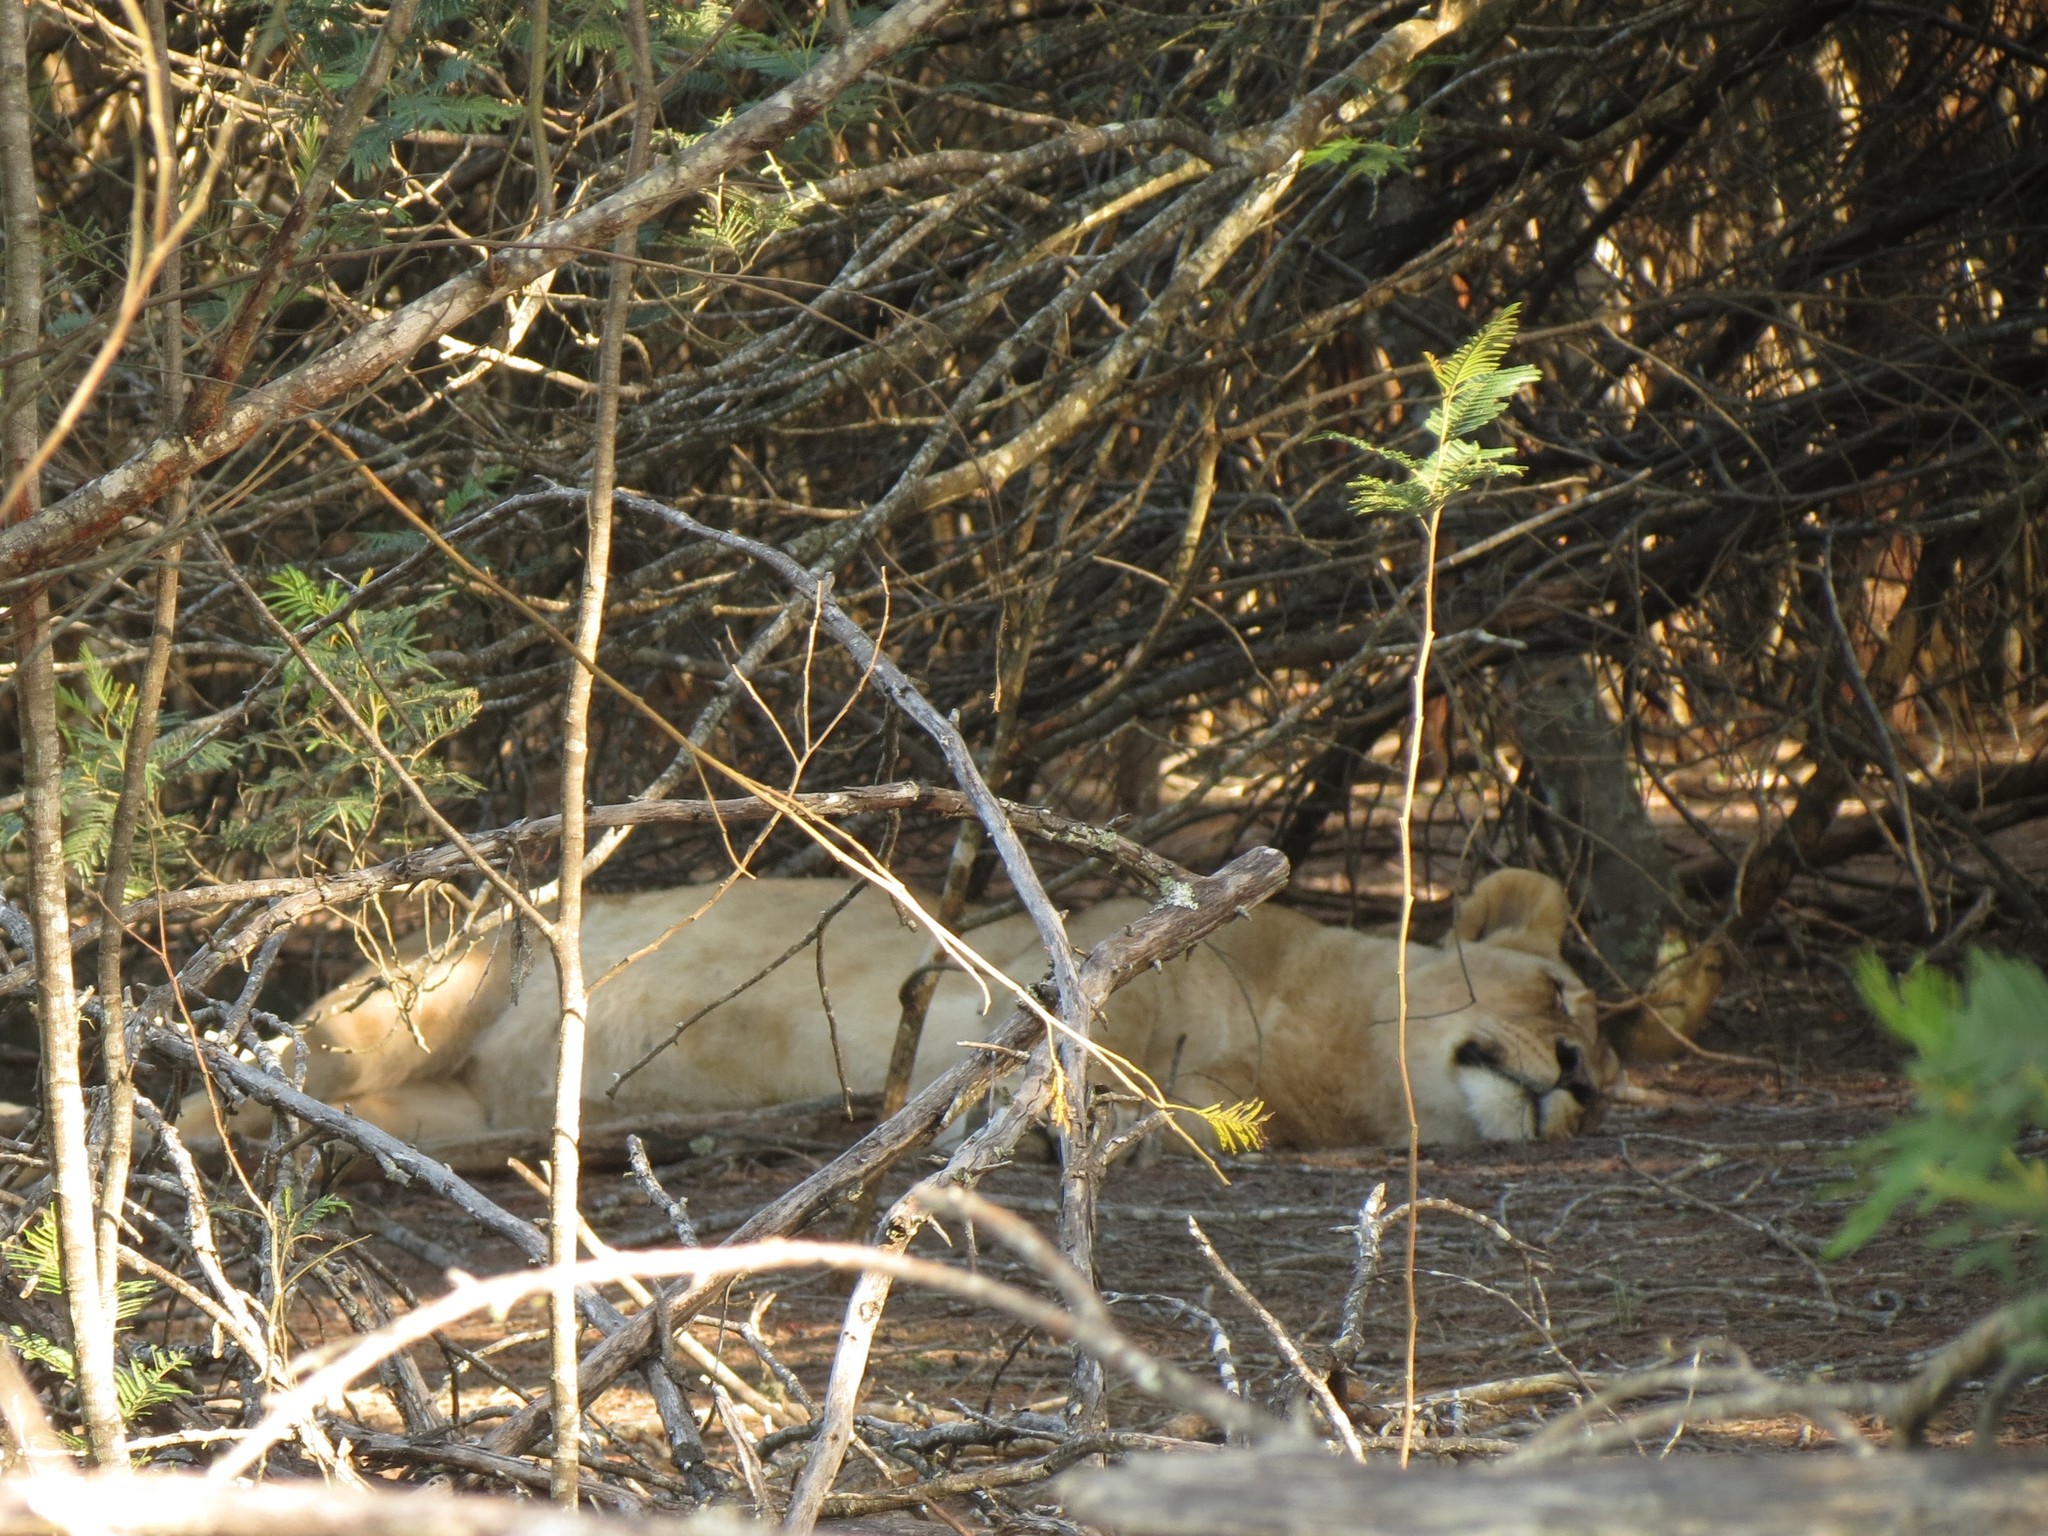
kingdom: Animalia
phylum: Chordata
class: Mammalia
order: Carnivora
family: Felidae
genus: Panthera
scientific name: Panthera leo
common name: Lion
